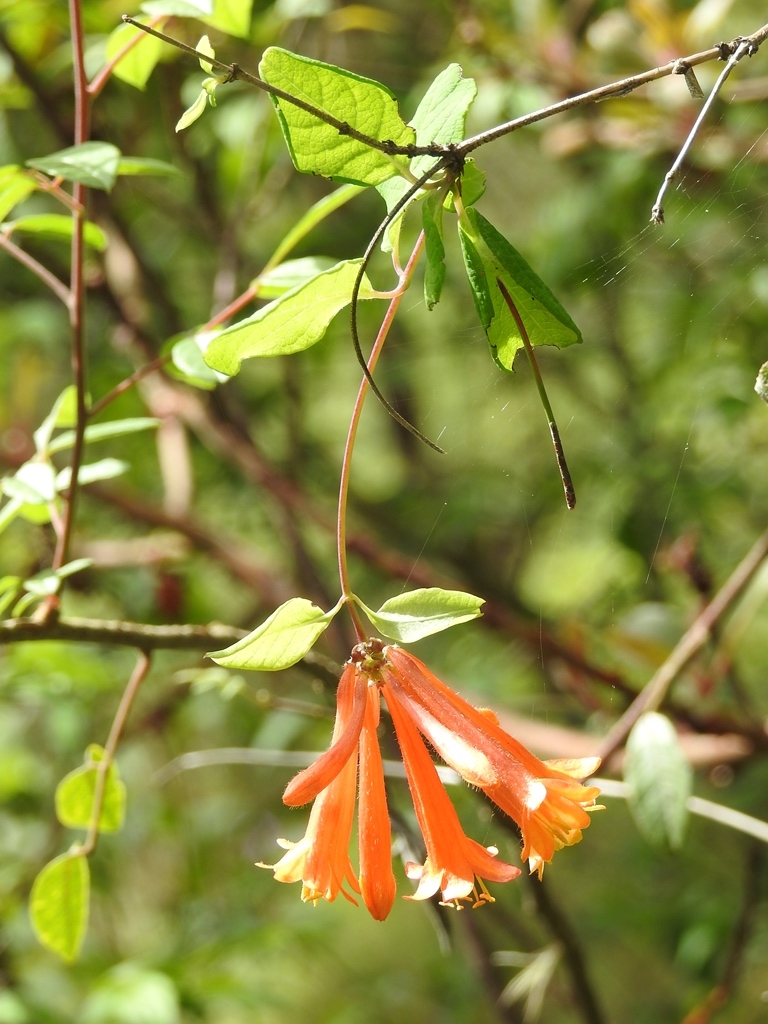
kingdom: Plantae
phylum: Tracheophyta
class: Magnoliopsida
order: Dipsacales
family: Caprifoliaceae
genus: Lonicera
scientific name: Lonicera pilosa
